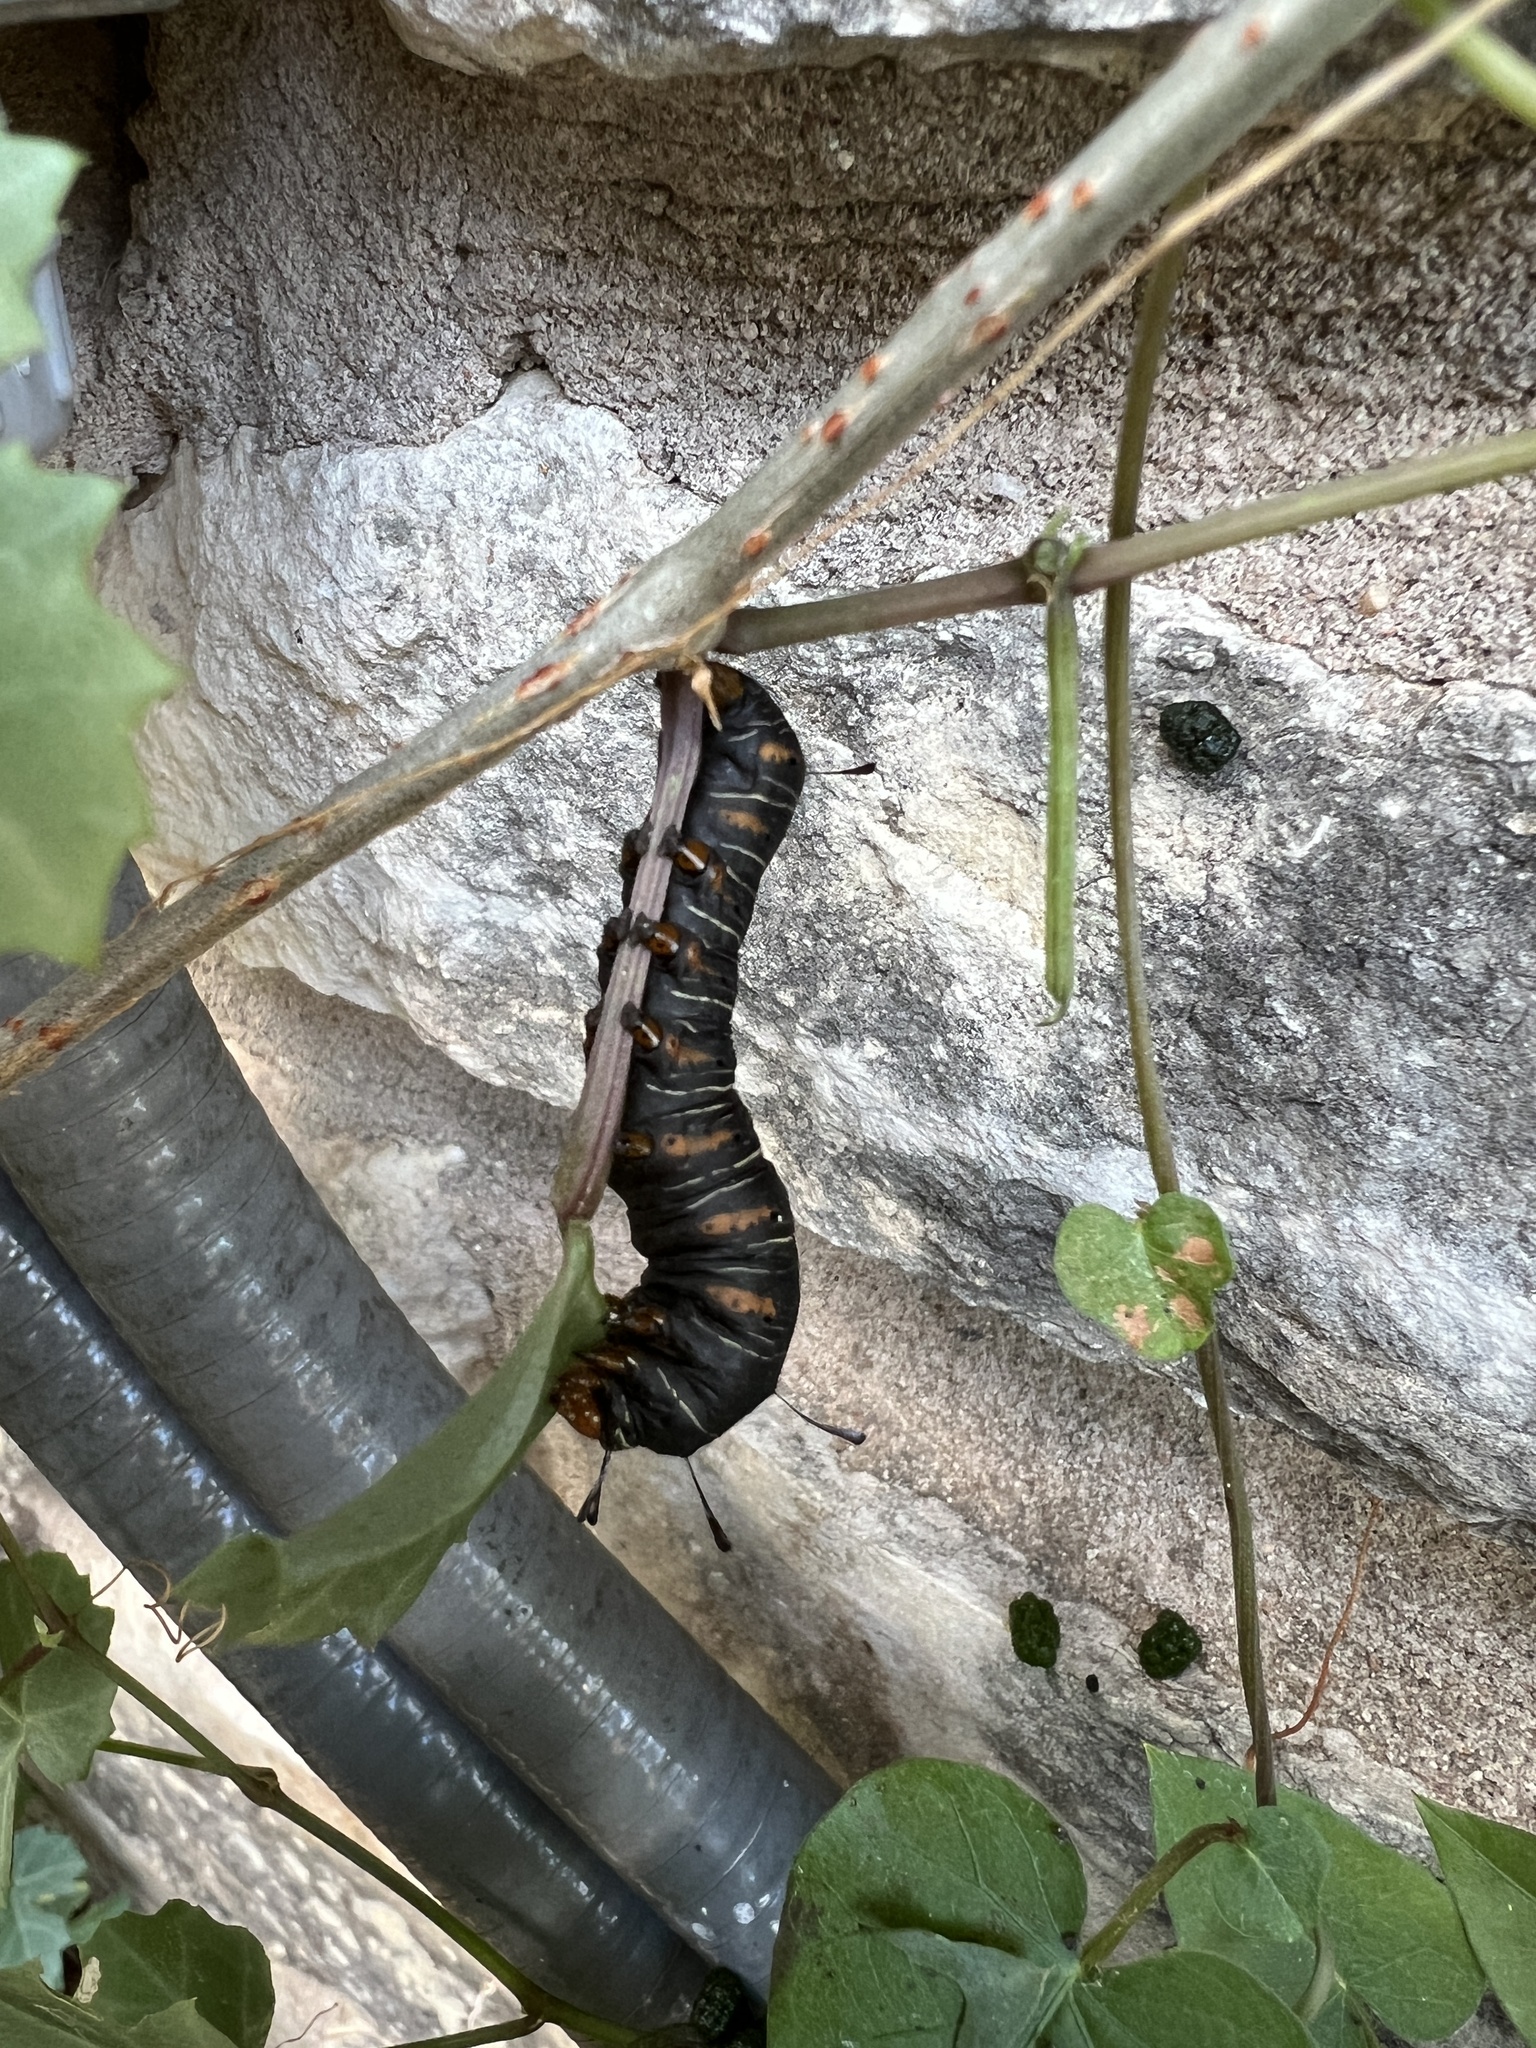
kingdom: Animalia
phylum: Arthropoda
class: Insecta
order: Lepidoptera
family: Noctuidae
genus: Xerociris
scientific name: Xerociris wilsonii
